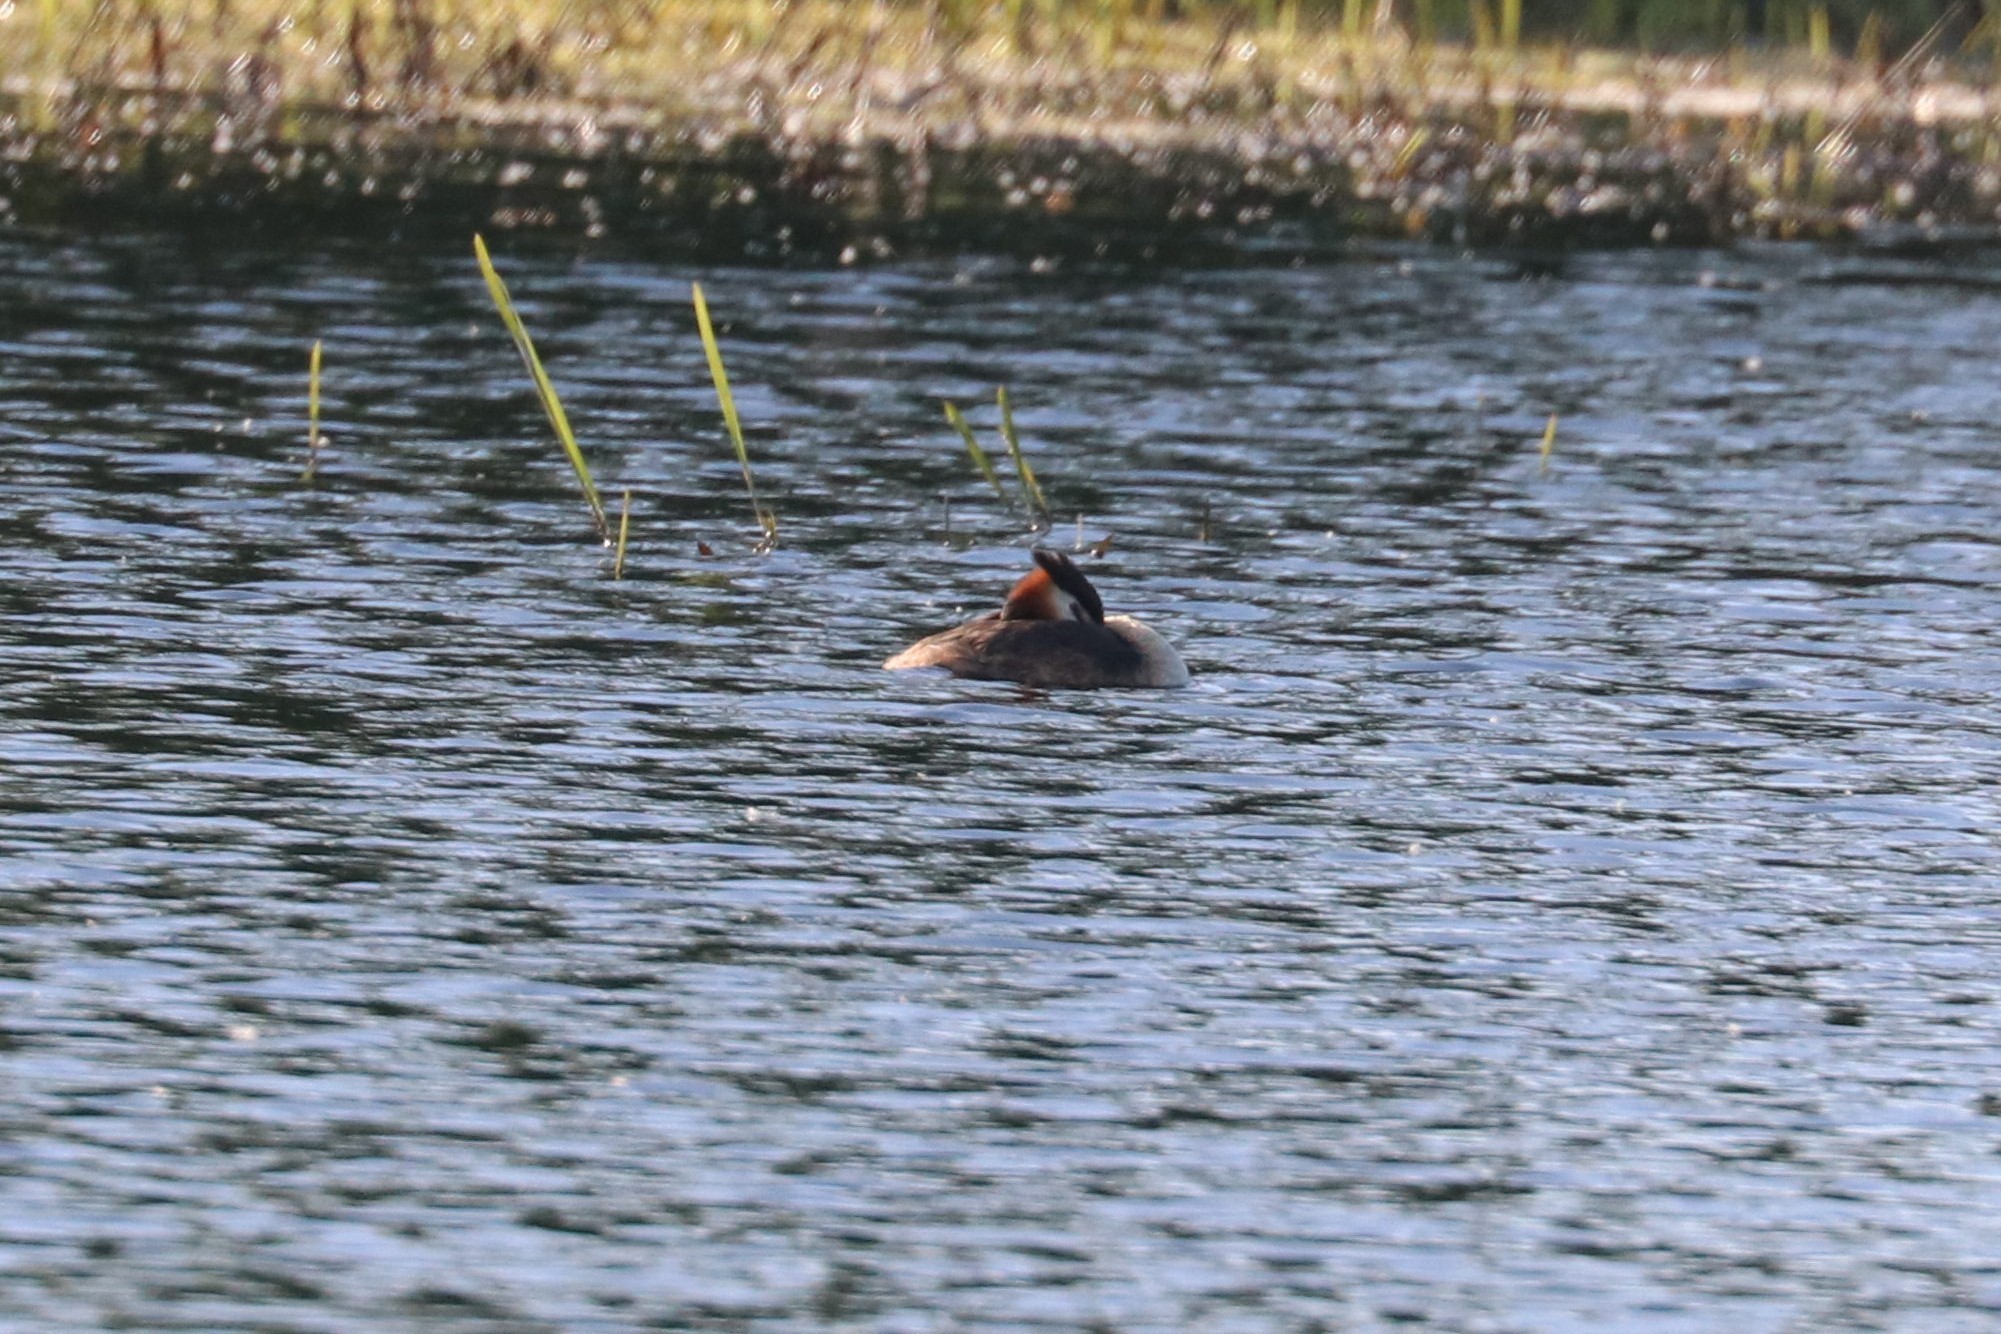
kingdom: Animalia
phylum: Chordata
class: Aves
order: Podicipediformes
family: Podicipedidae
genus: Podiceps
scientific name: Podiceps cristatus
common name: Great crested grebe
